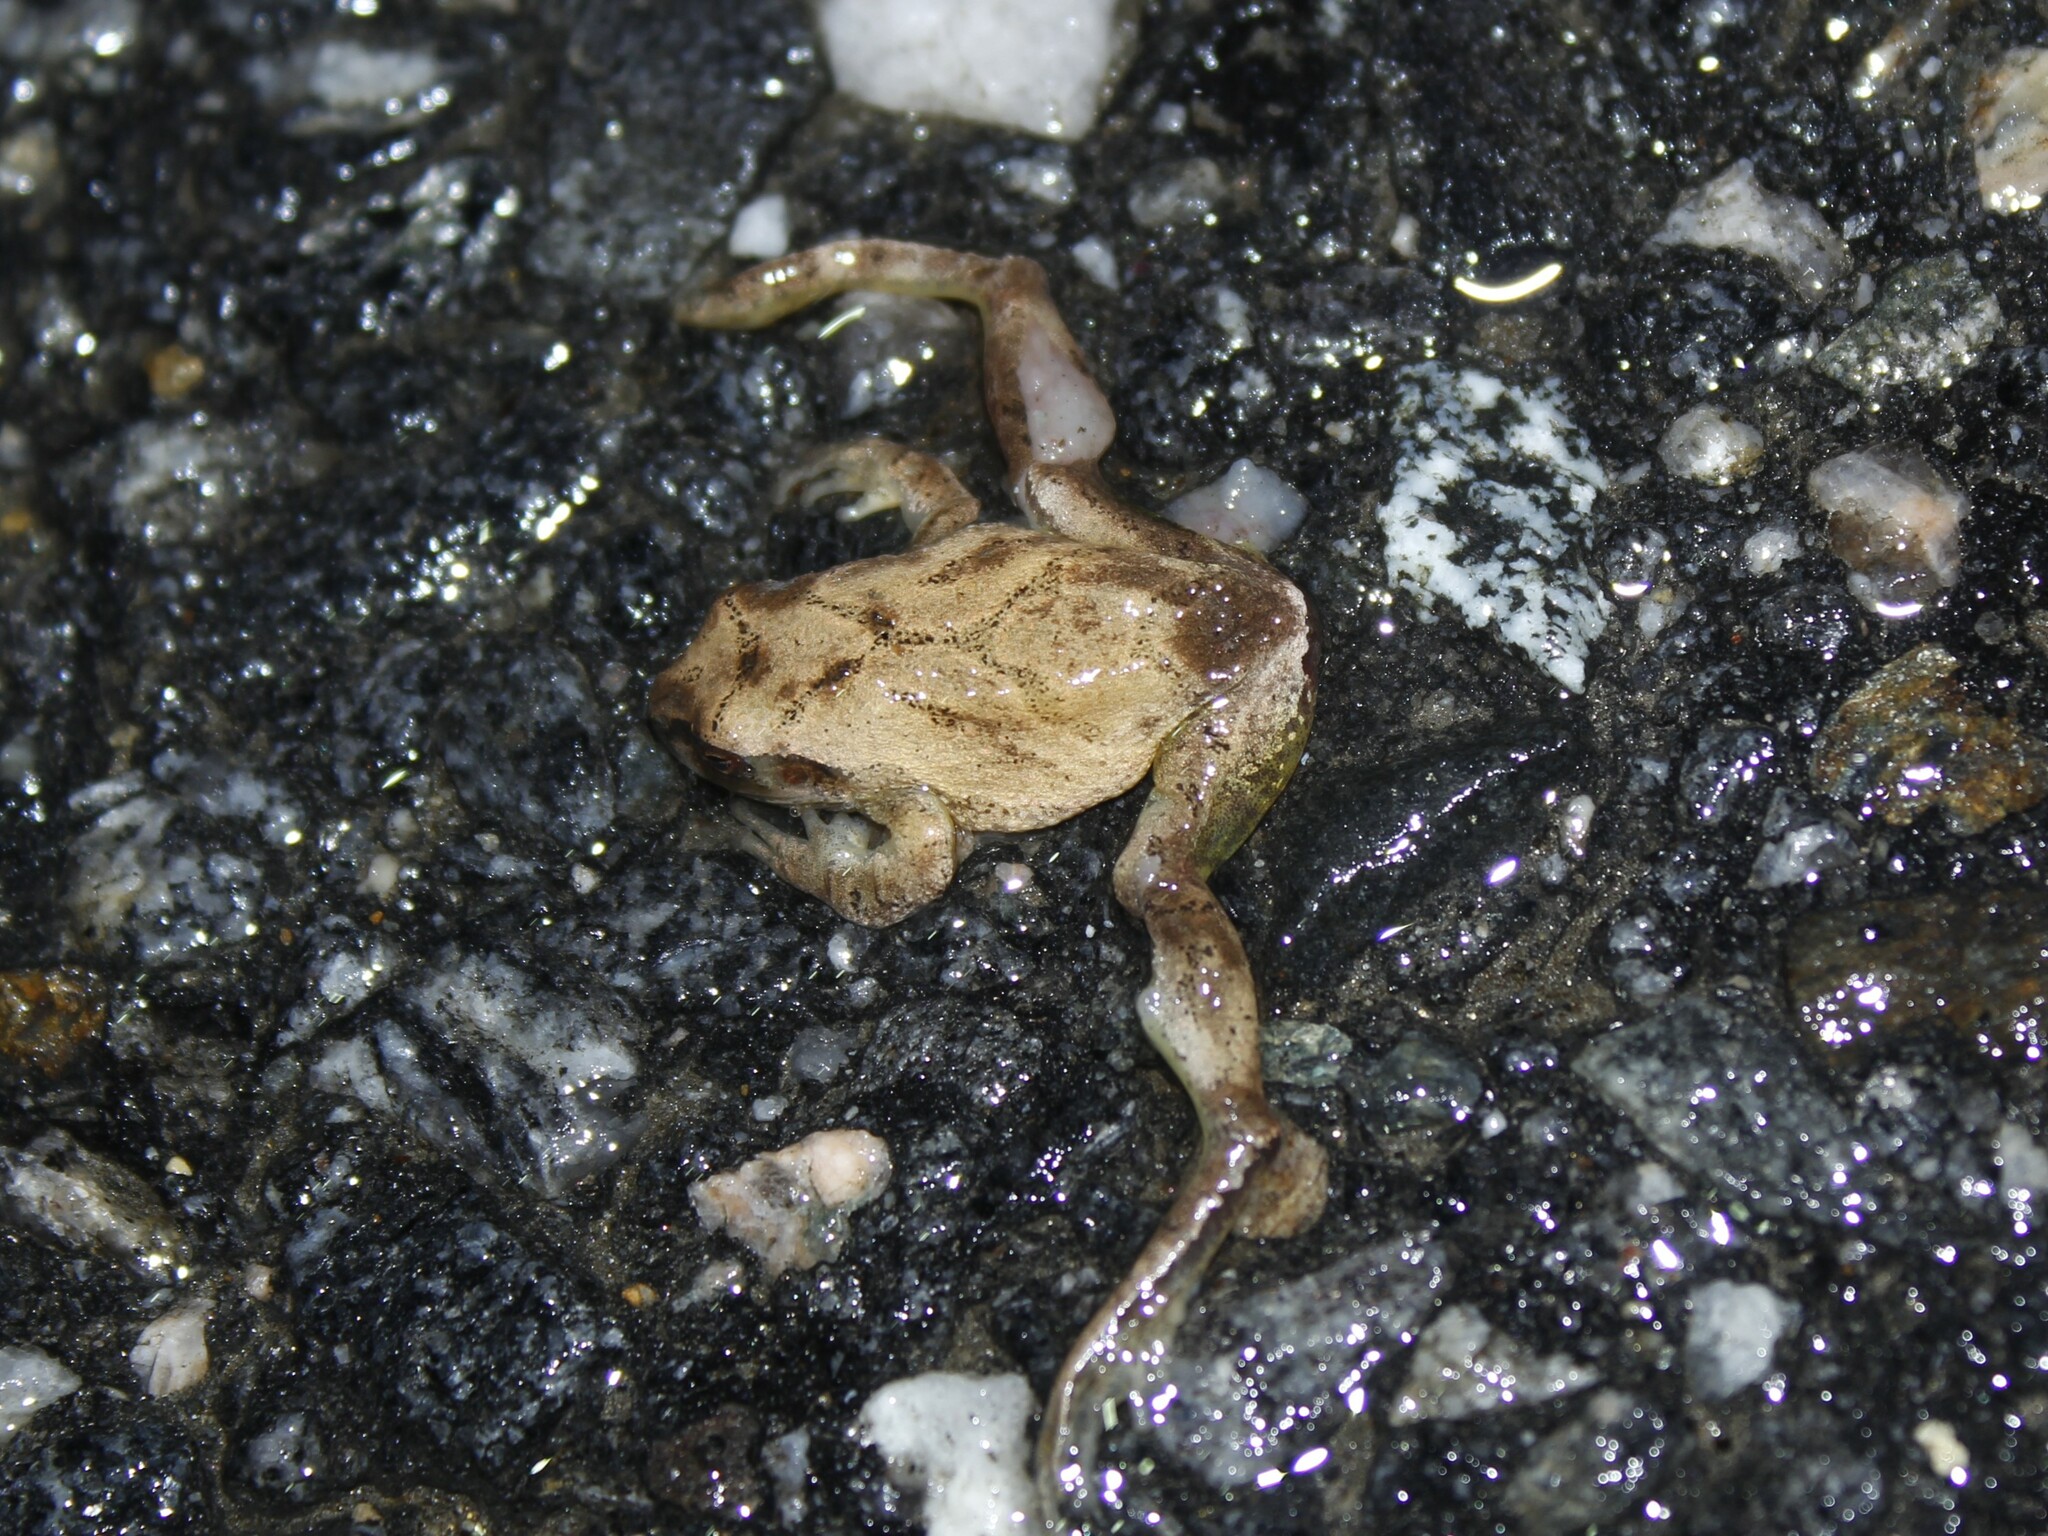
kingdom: Animalia
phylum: Chordata
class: Amphibia
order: Anura
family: Hylidae
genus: Pseudacris
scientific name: Pseudacris crucifer
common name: Spring peeper
